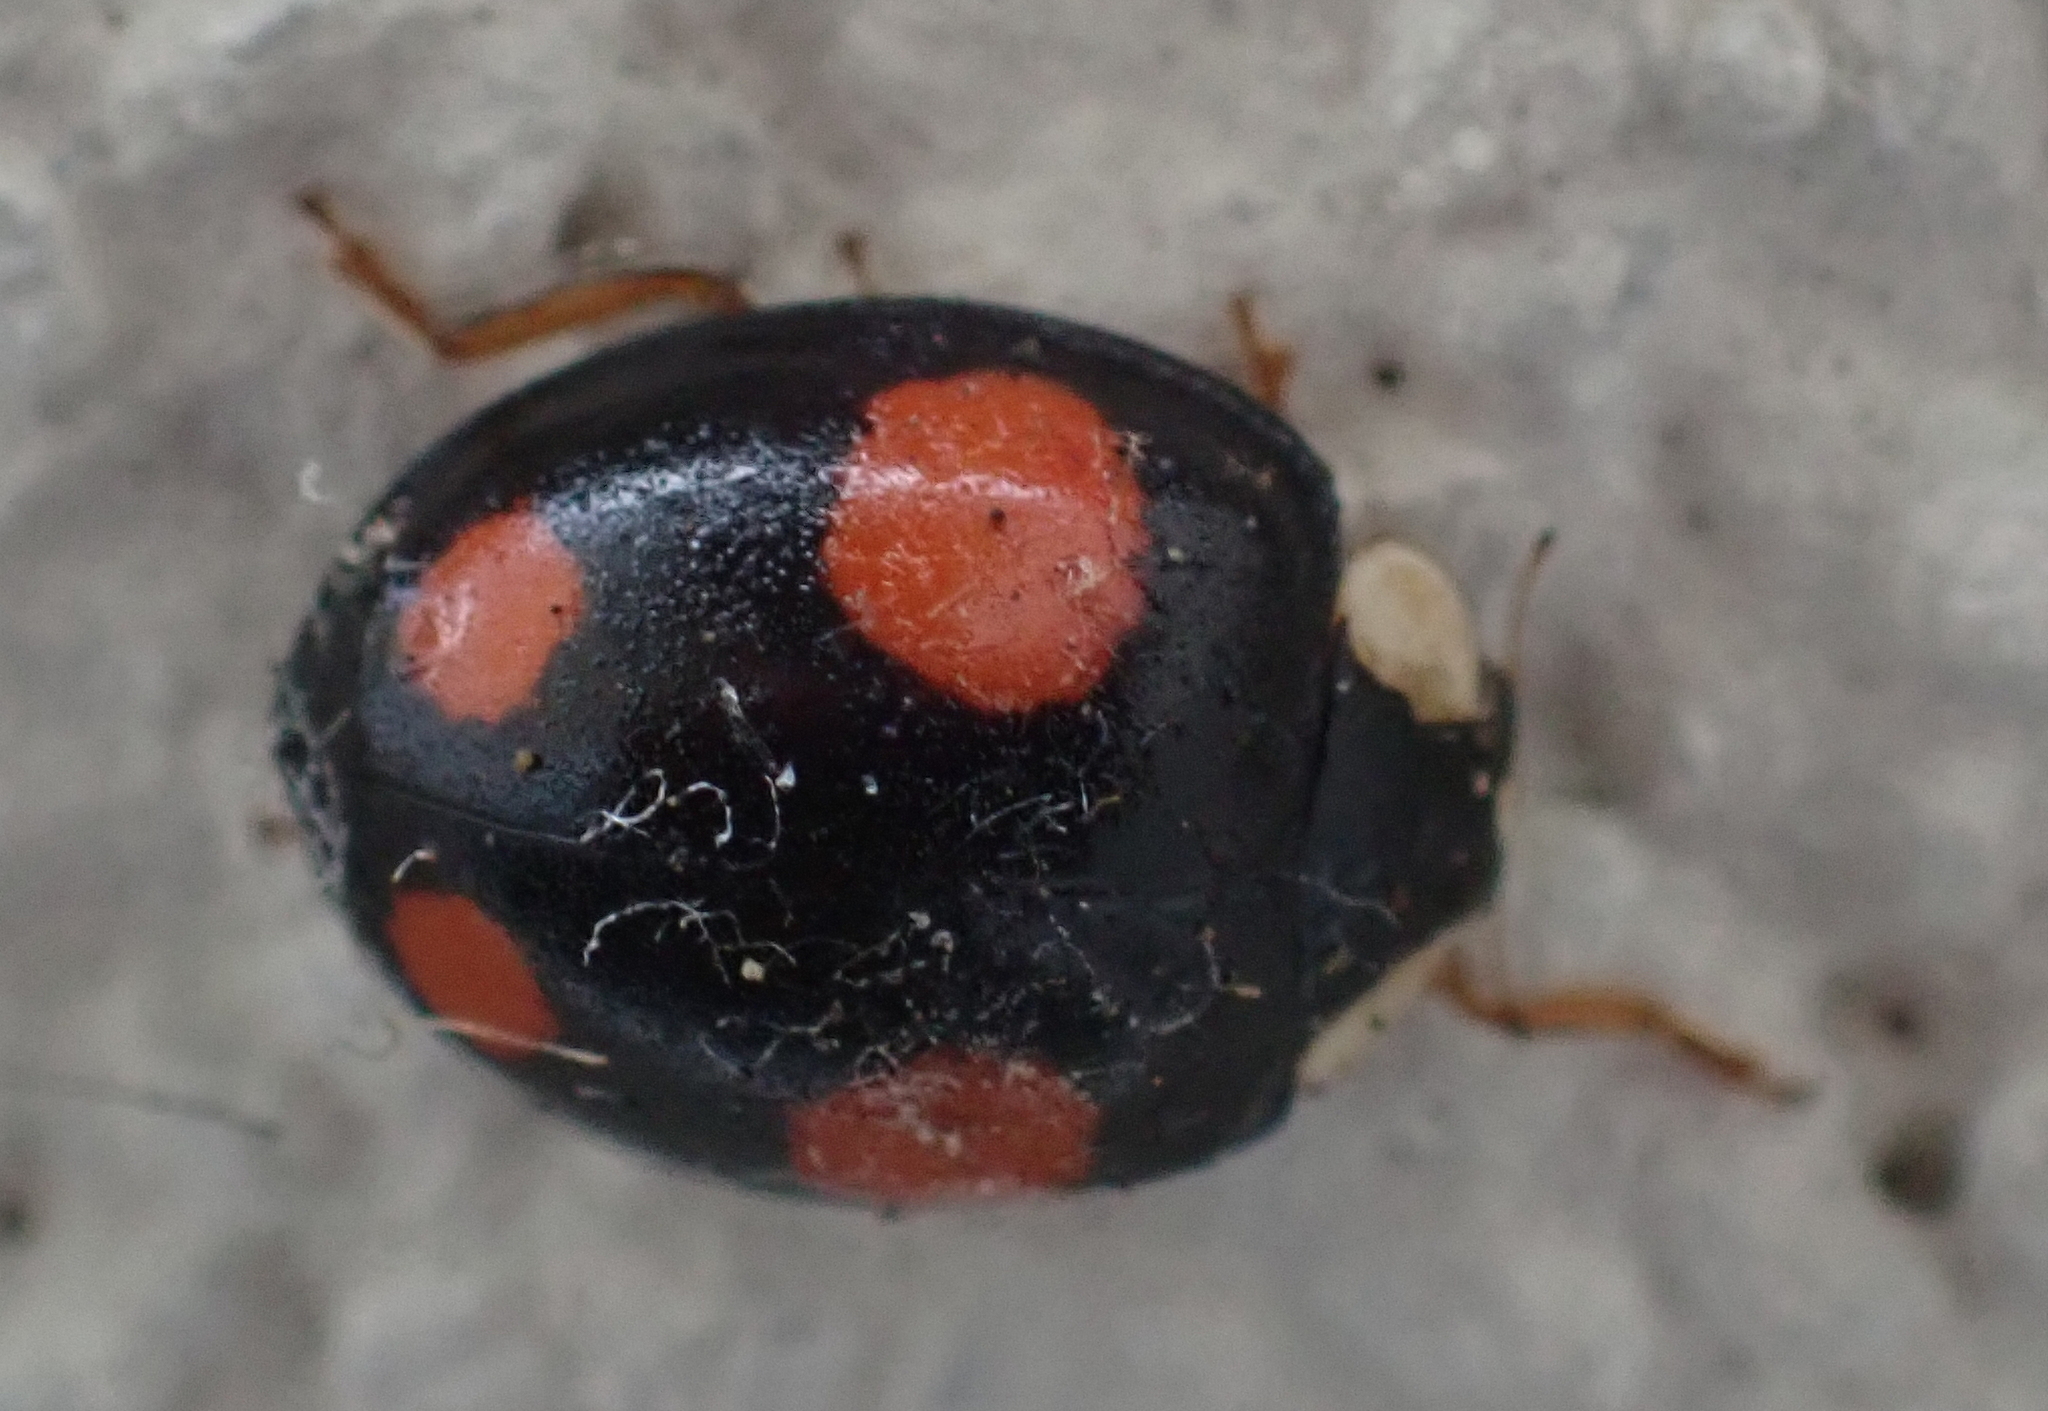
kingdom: Animalia
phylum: Arthropoda
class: Insecta
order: Coleoptera
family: Coccinellidae
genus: Harmonia
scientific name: Harmonia axyridis
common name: Harlequin ladybird
